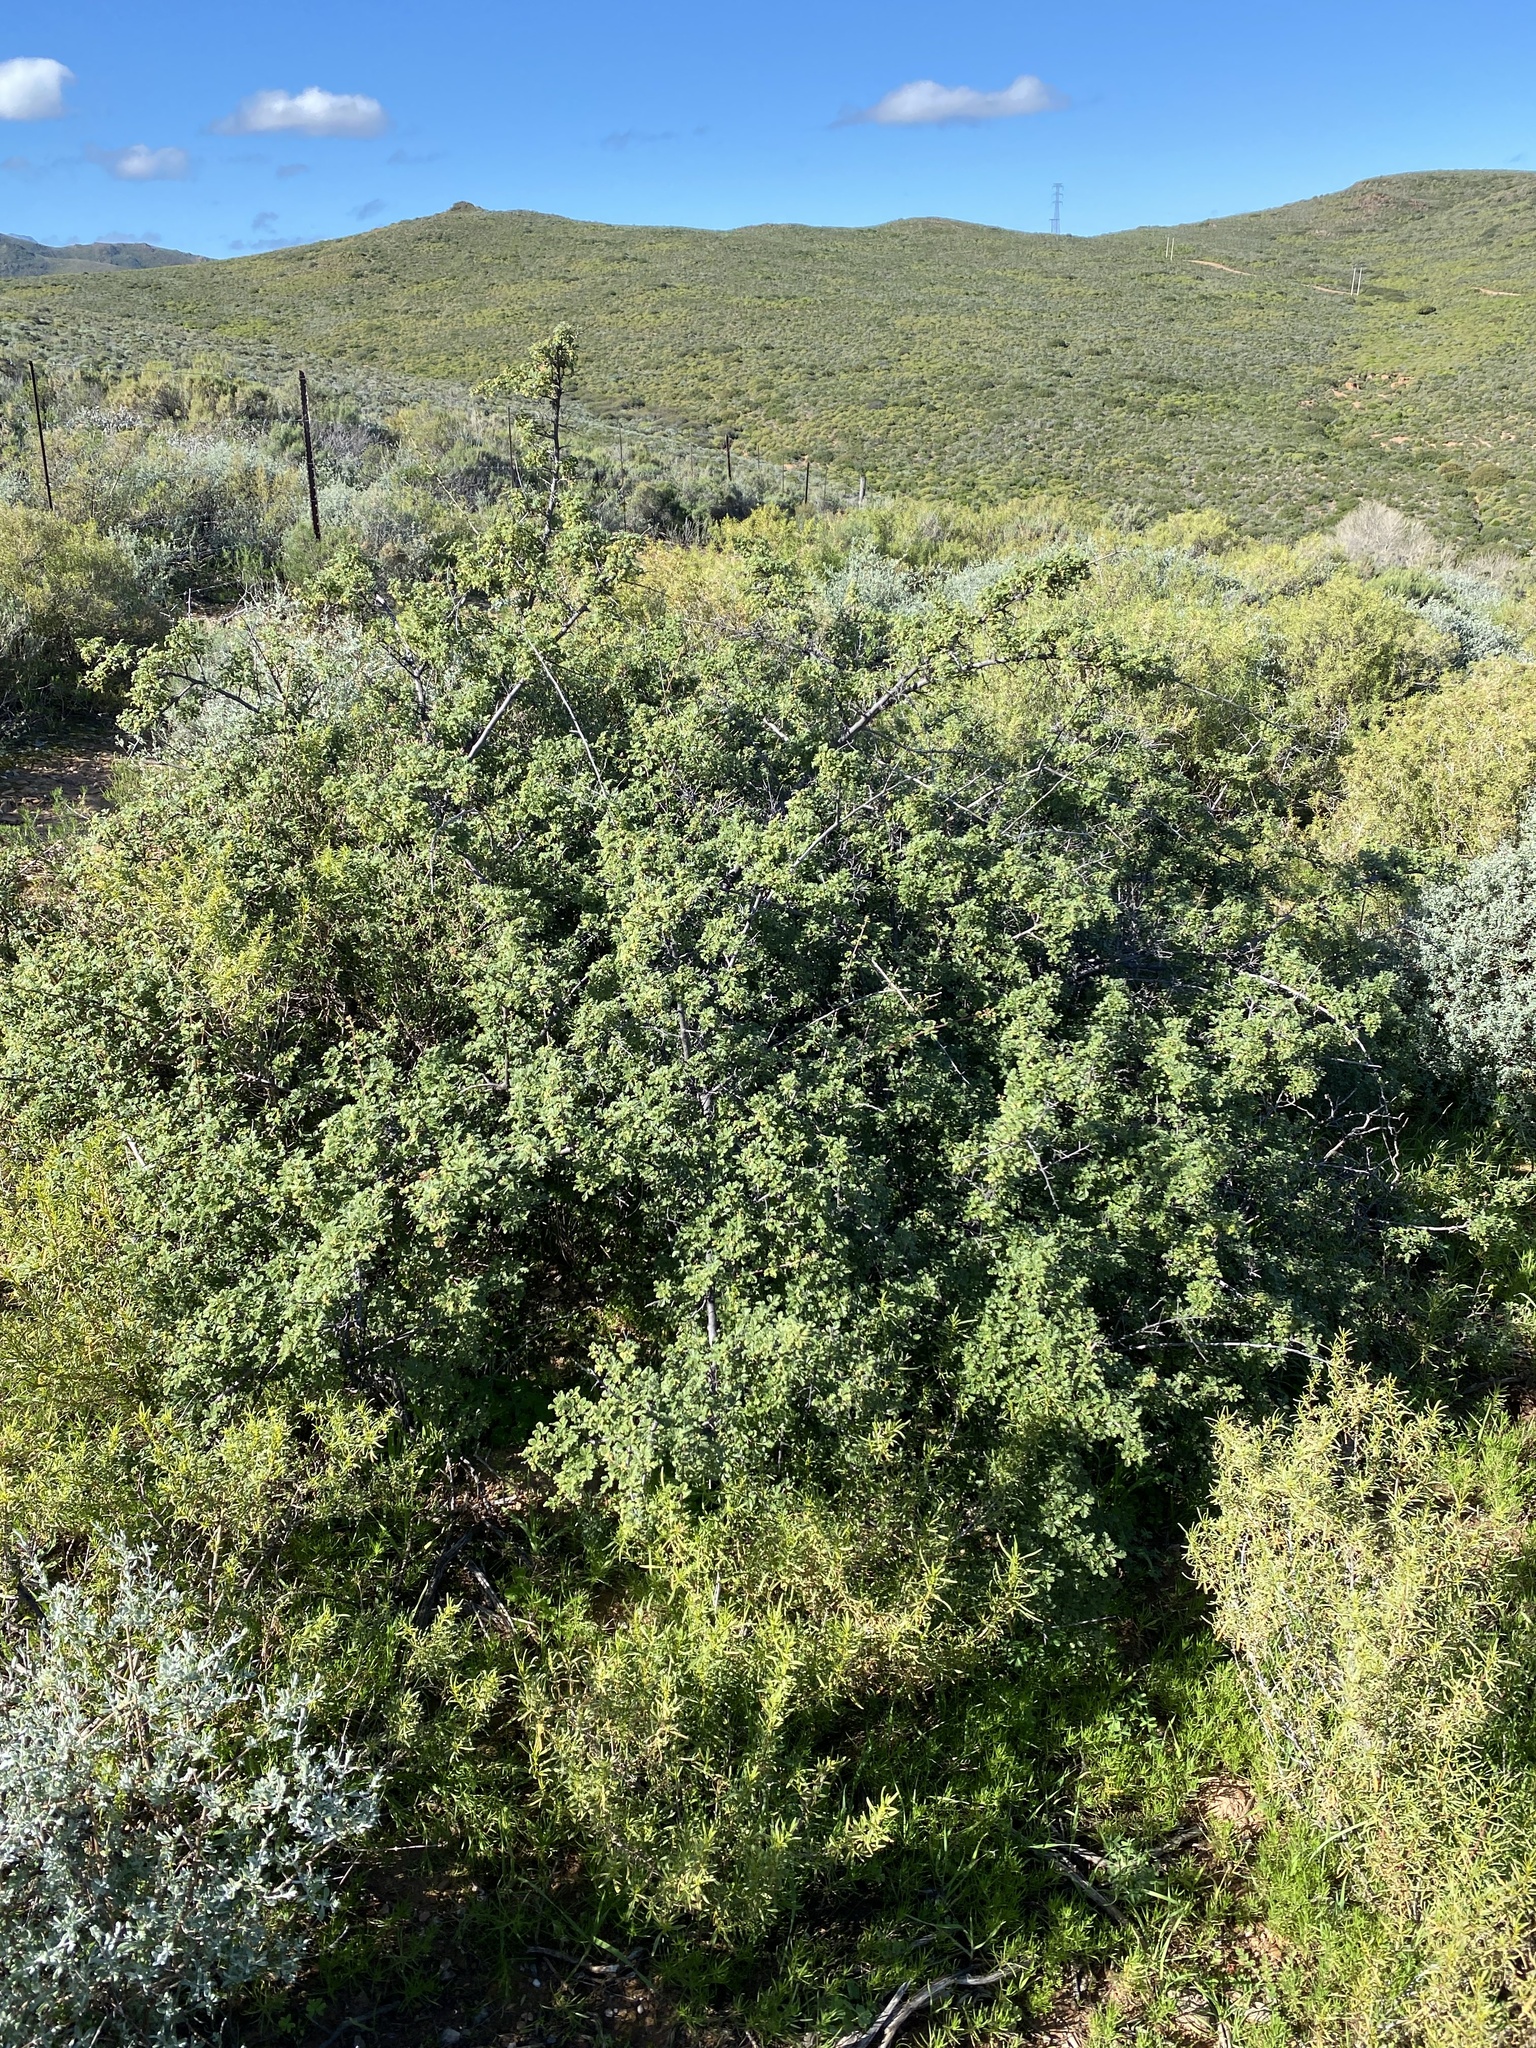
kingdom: Plantae
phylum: Tracheophyta
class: Magnoliopsida
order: Sapindales
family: Anacardiaceae
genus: Searsia
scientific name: Searsia incisa
